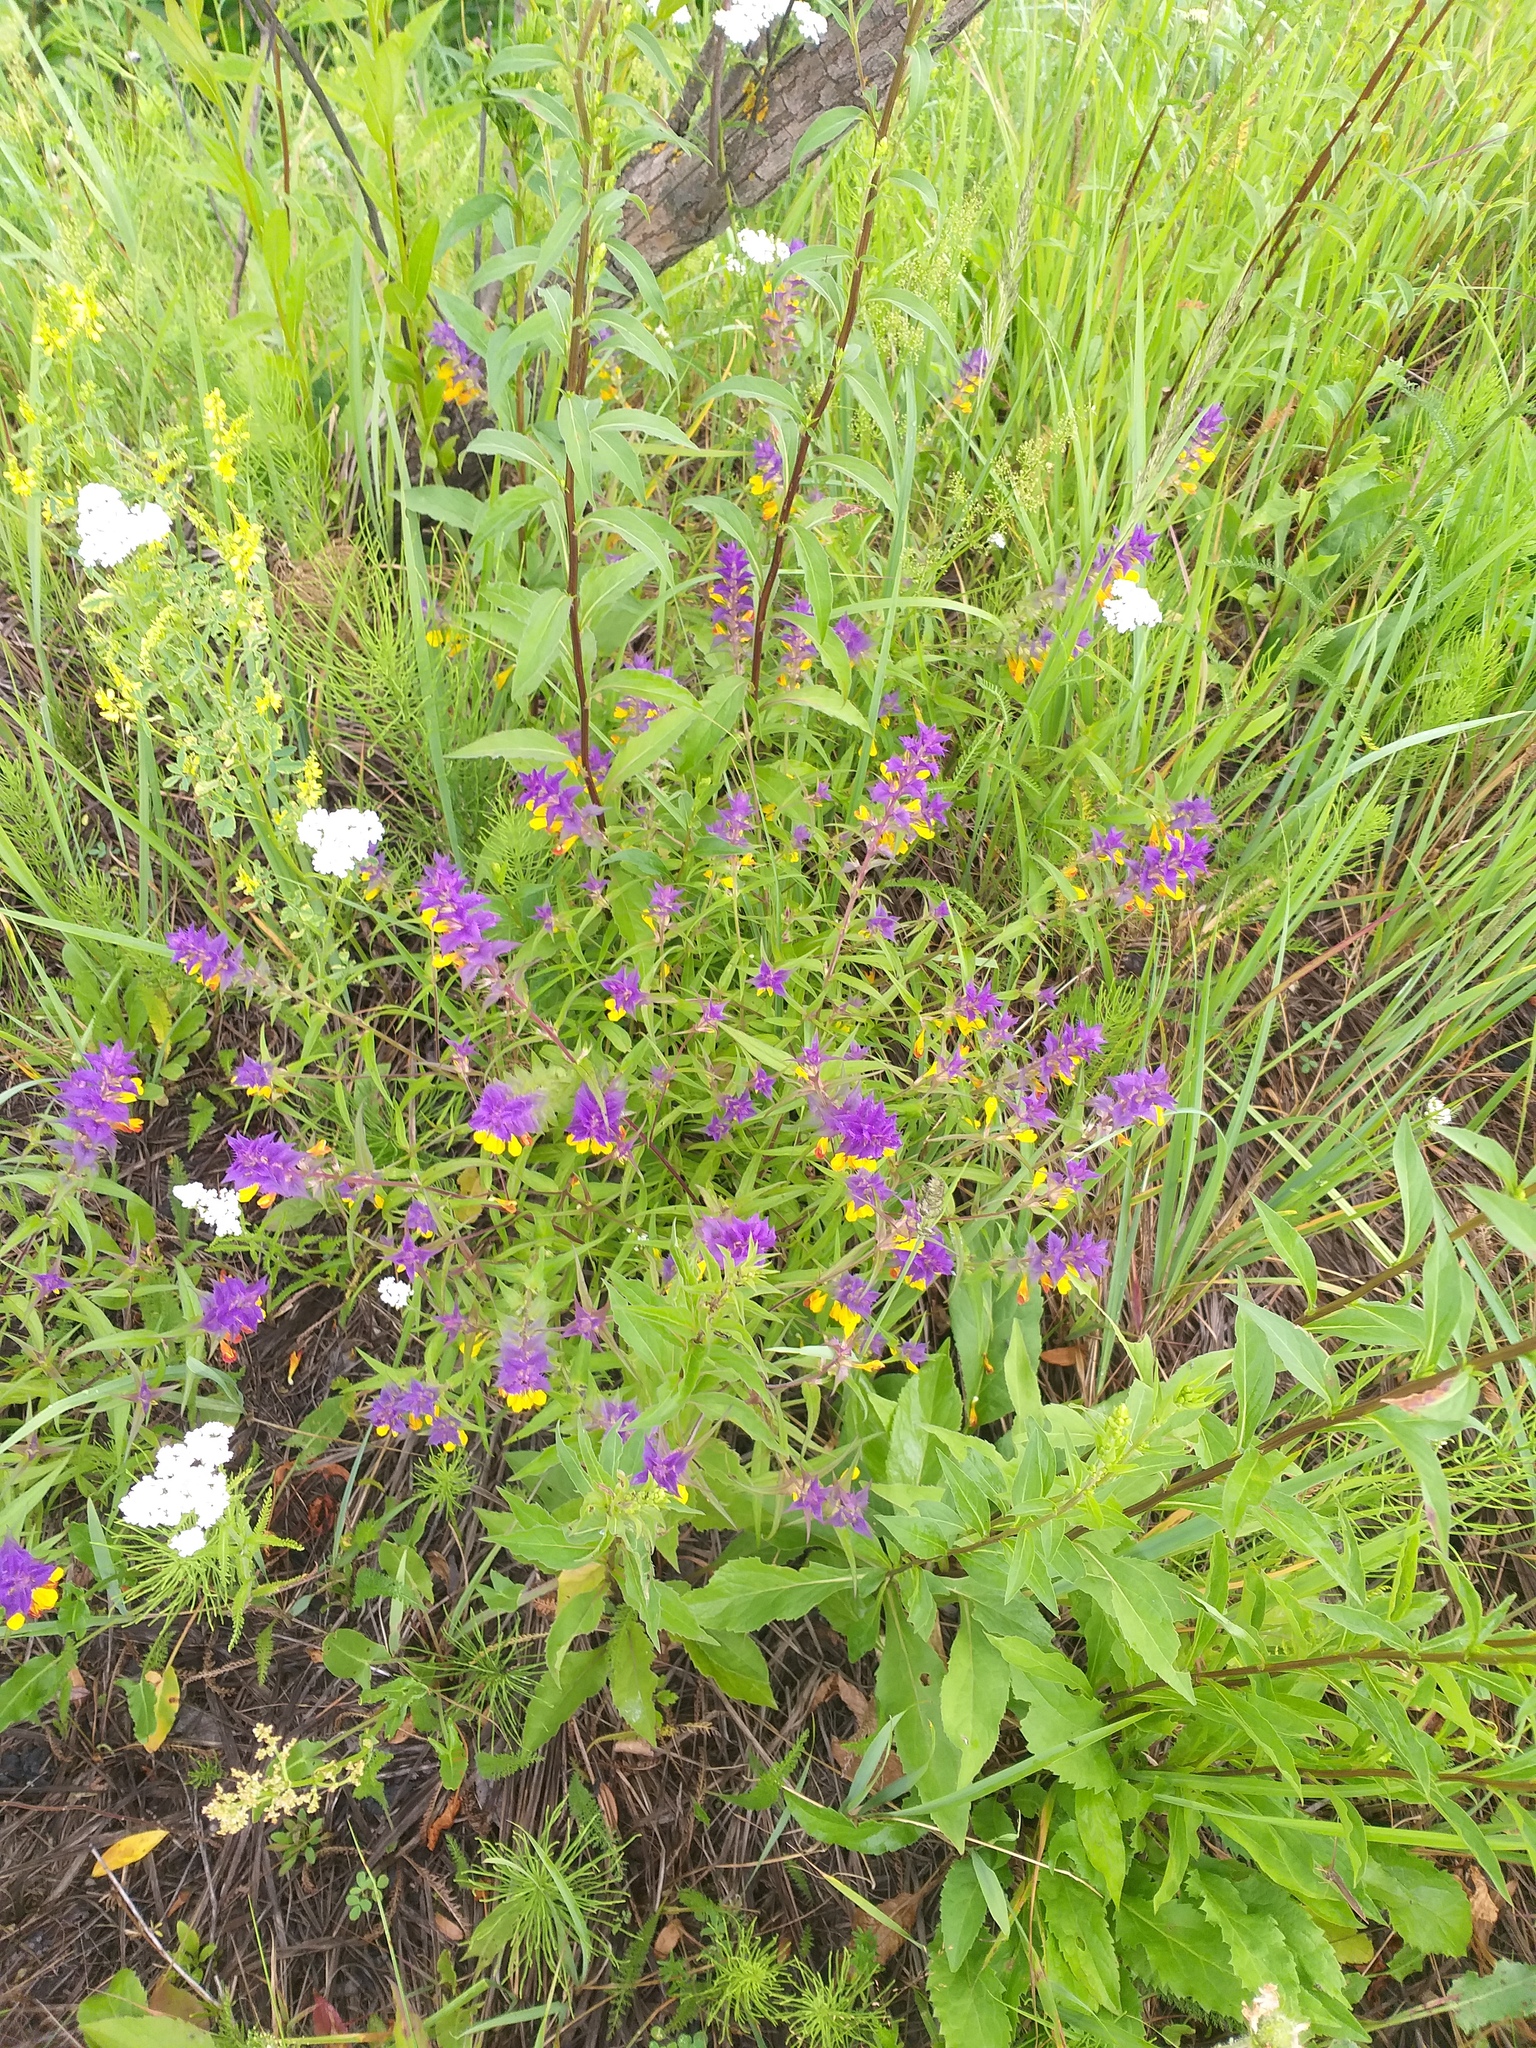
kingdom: Plantae
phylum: Tracheophyta
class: Magnoliopsida
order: Lamiales
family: Orobanchaceae
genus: Melampyrum
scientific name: Melampyrum nemorosum
